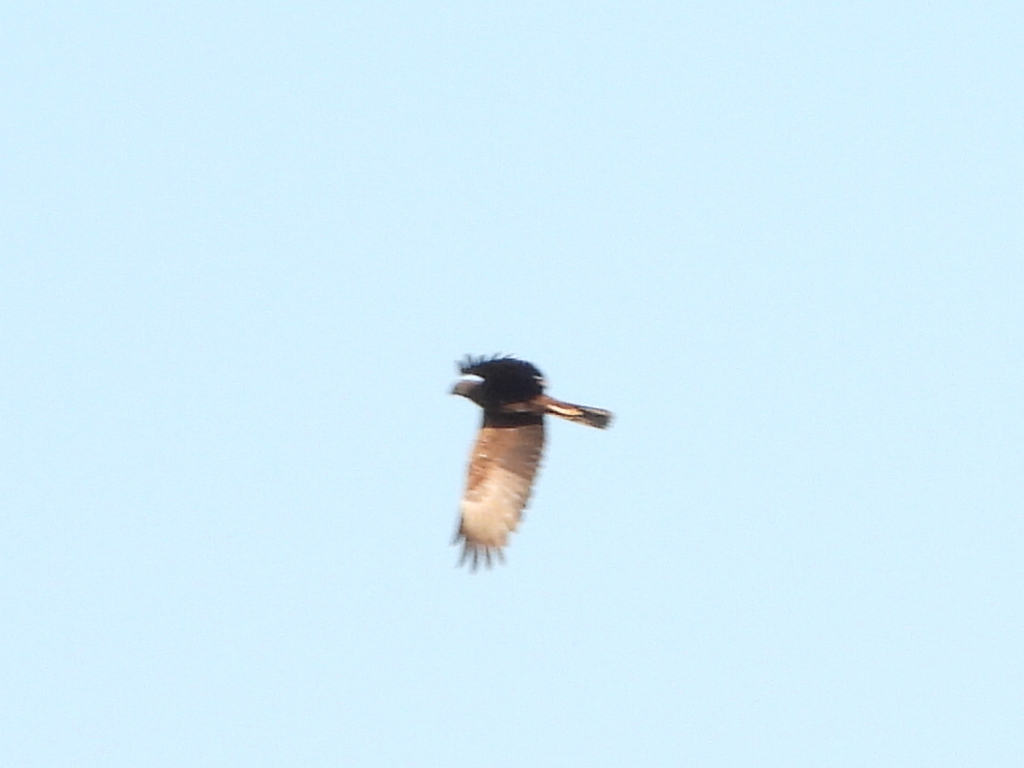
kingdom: Animalia
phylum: Chordata
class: Aves
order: Accipitriformes
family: Accipitridae
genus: Circus
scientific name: Circus aeruginosus
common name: Western marsh harrier
